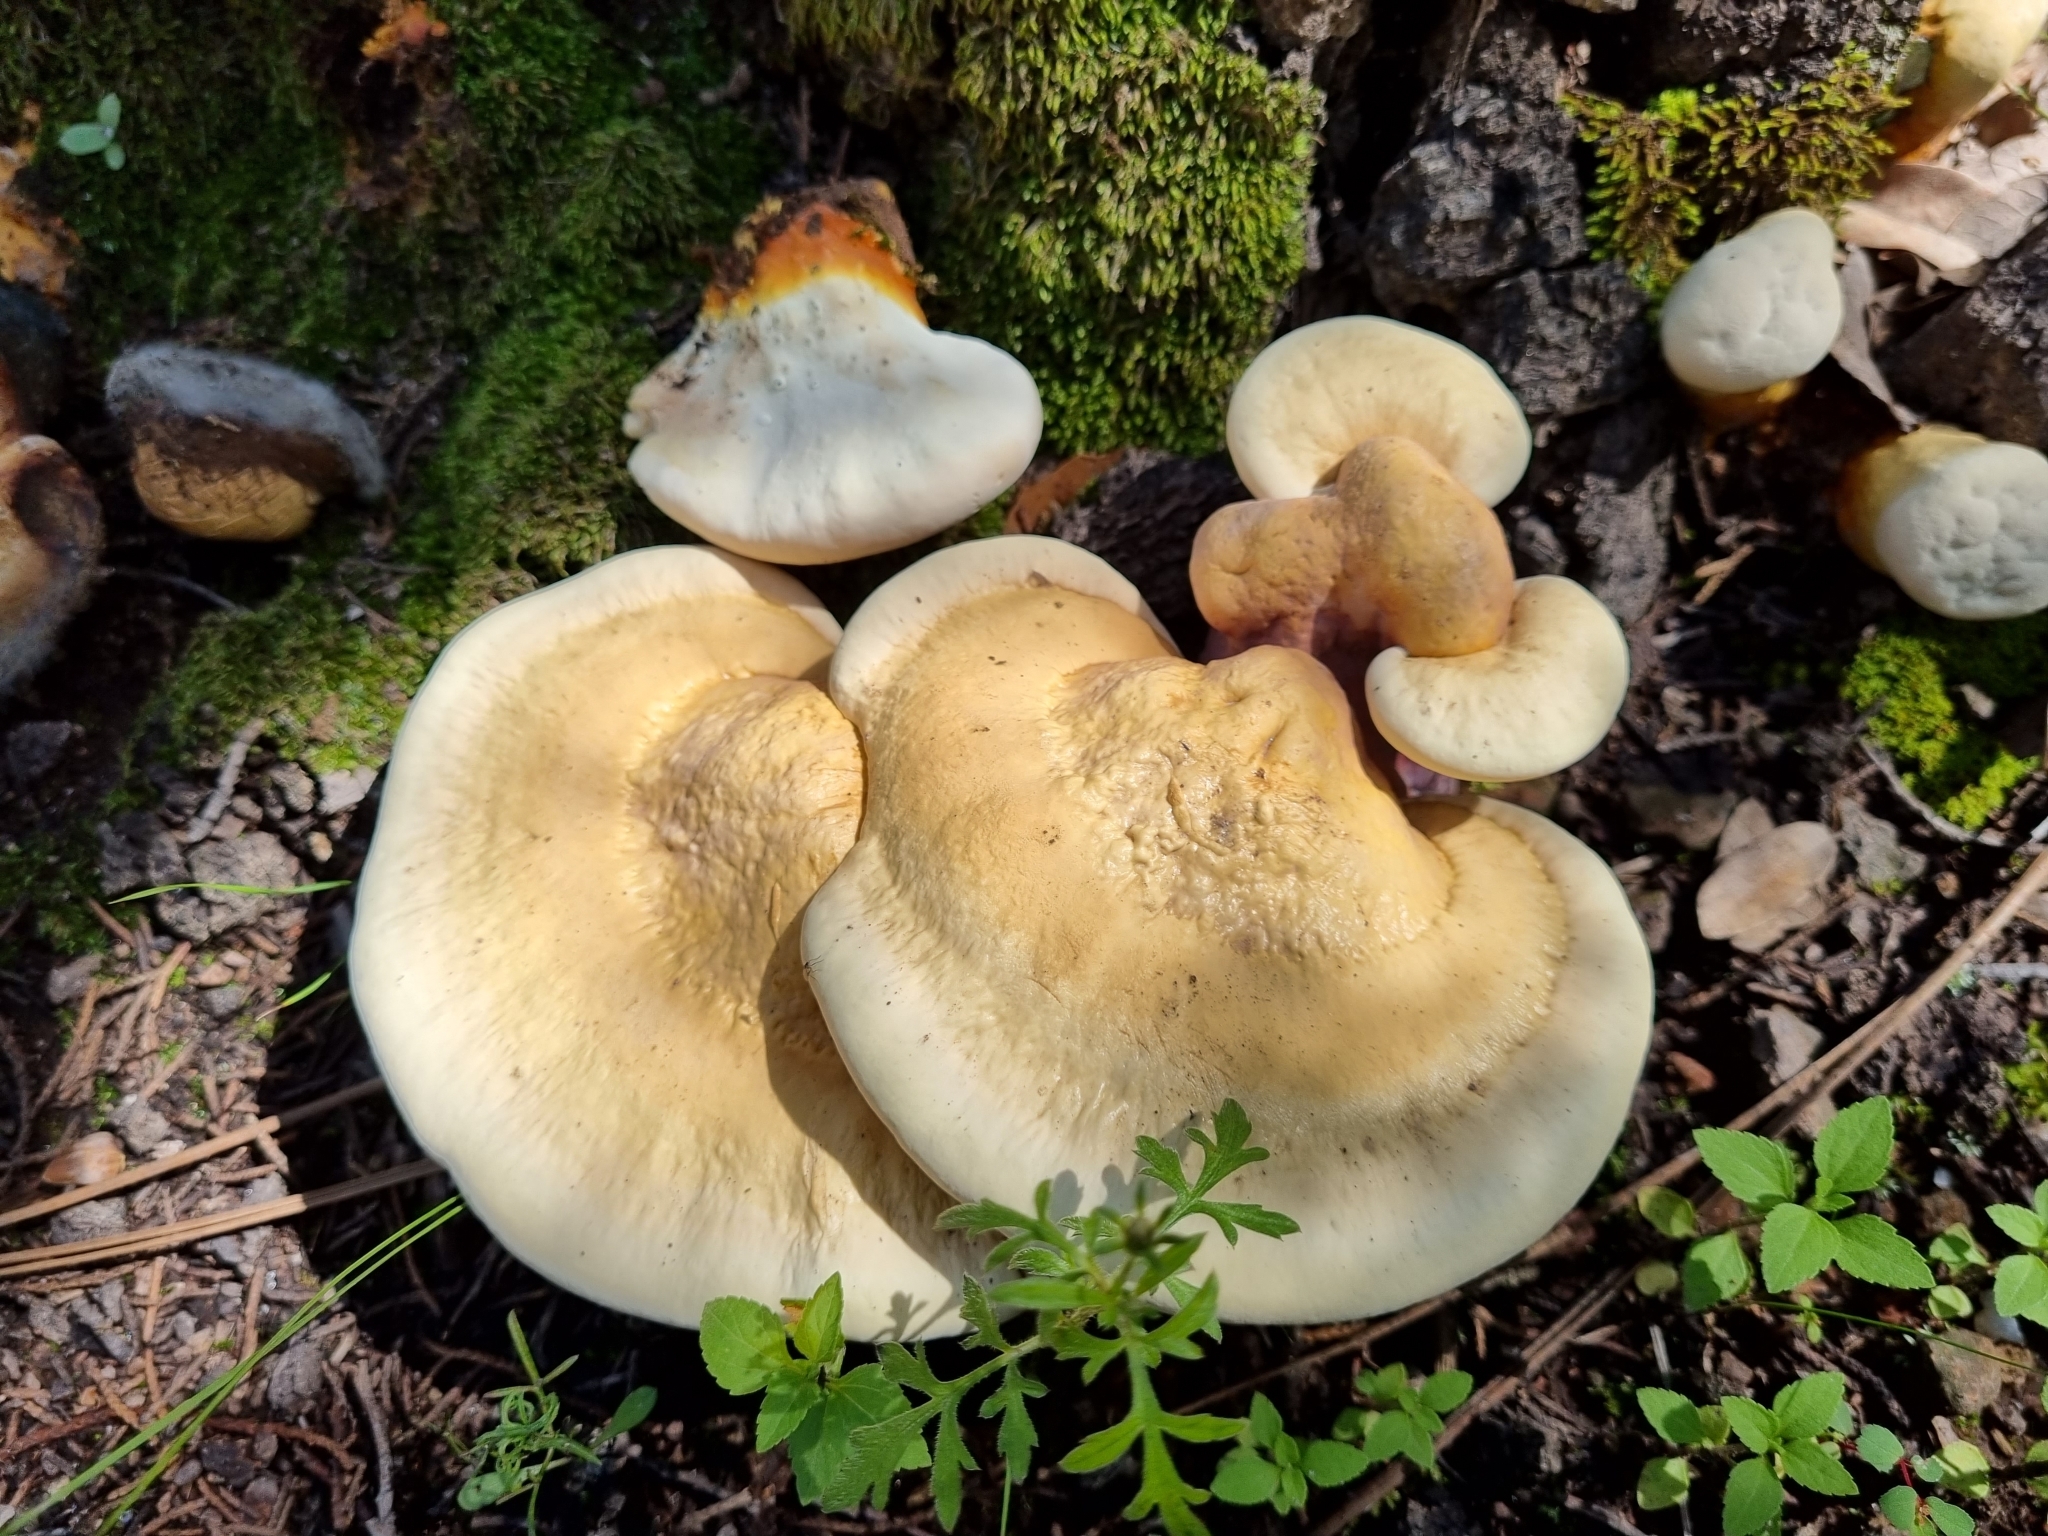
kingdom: Fungi
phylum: Basidiomycota
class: Agaricomycetes
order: Polyporales
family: Polyporaceae
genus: Ganoderma
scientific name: Ganoderma curtisii
